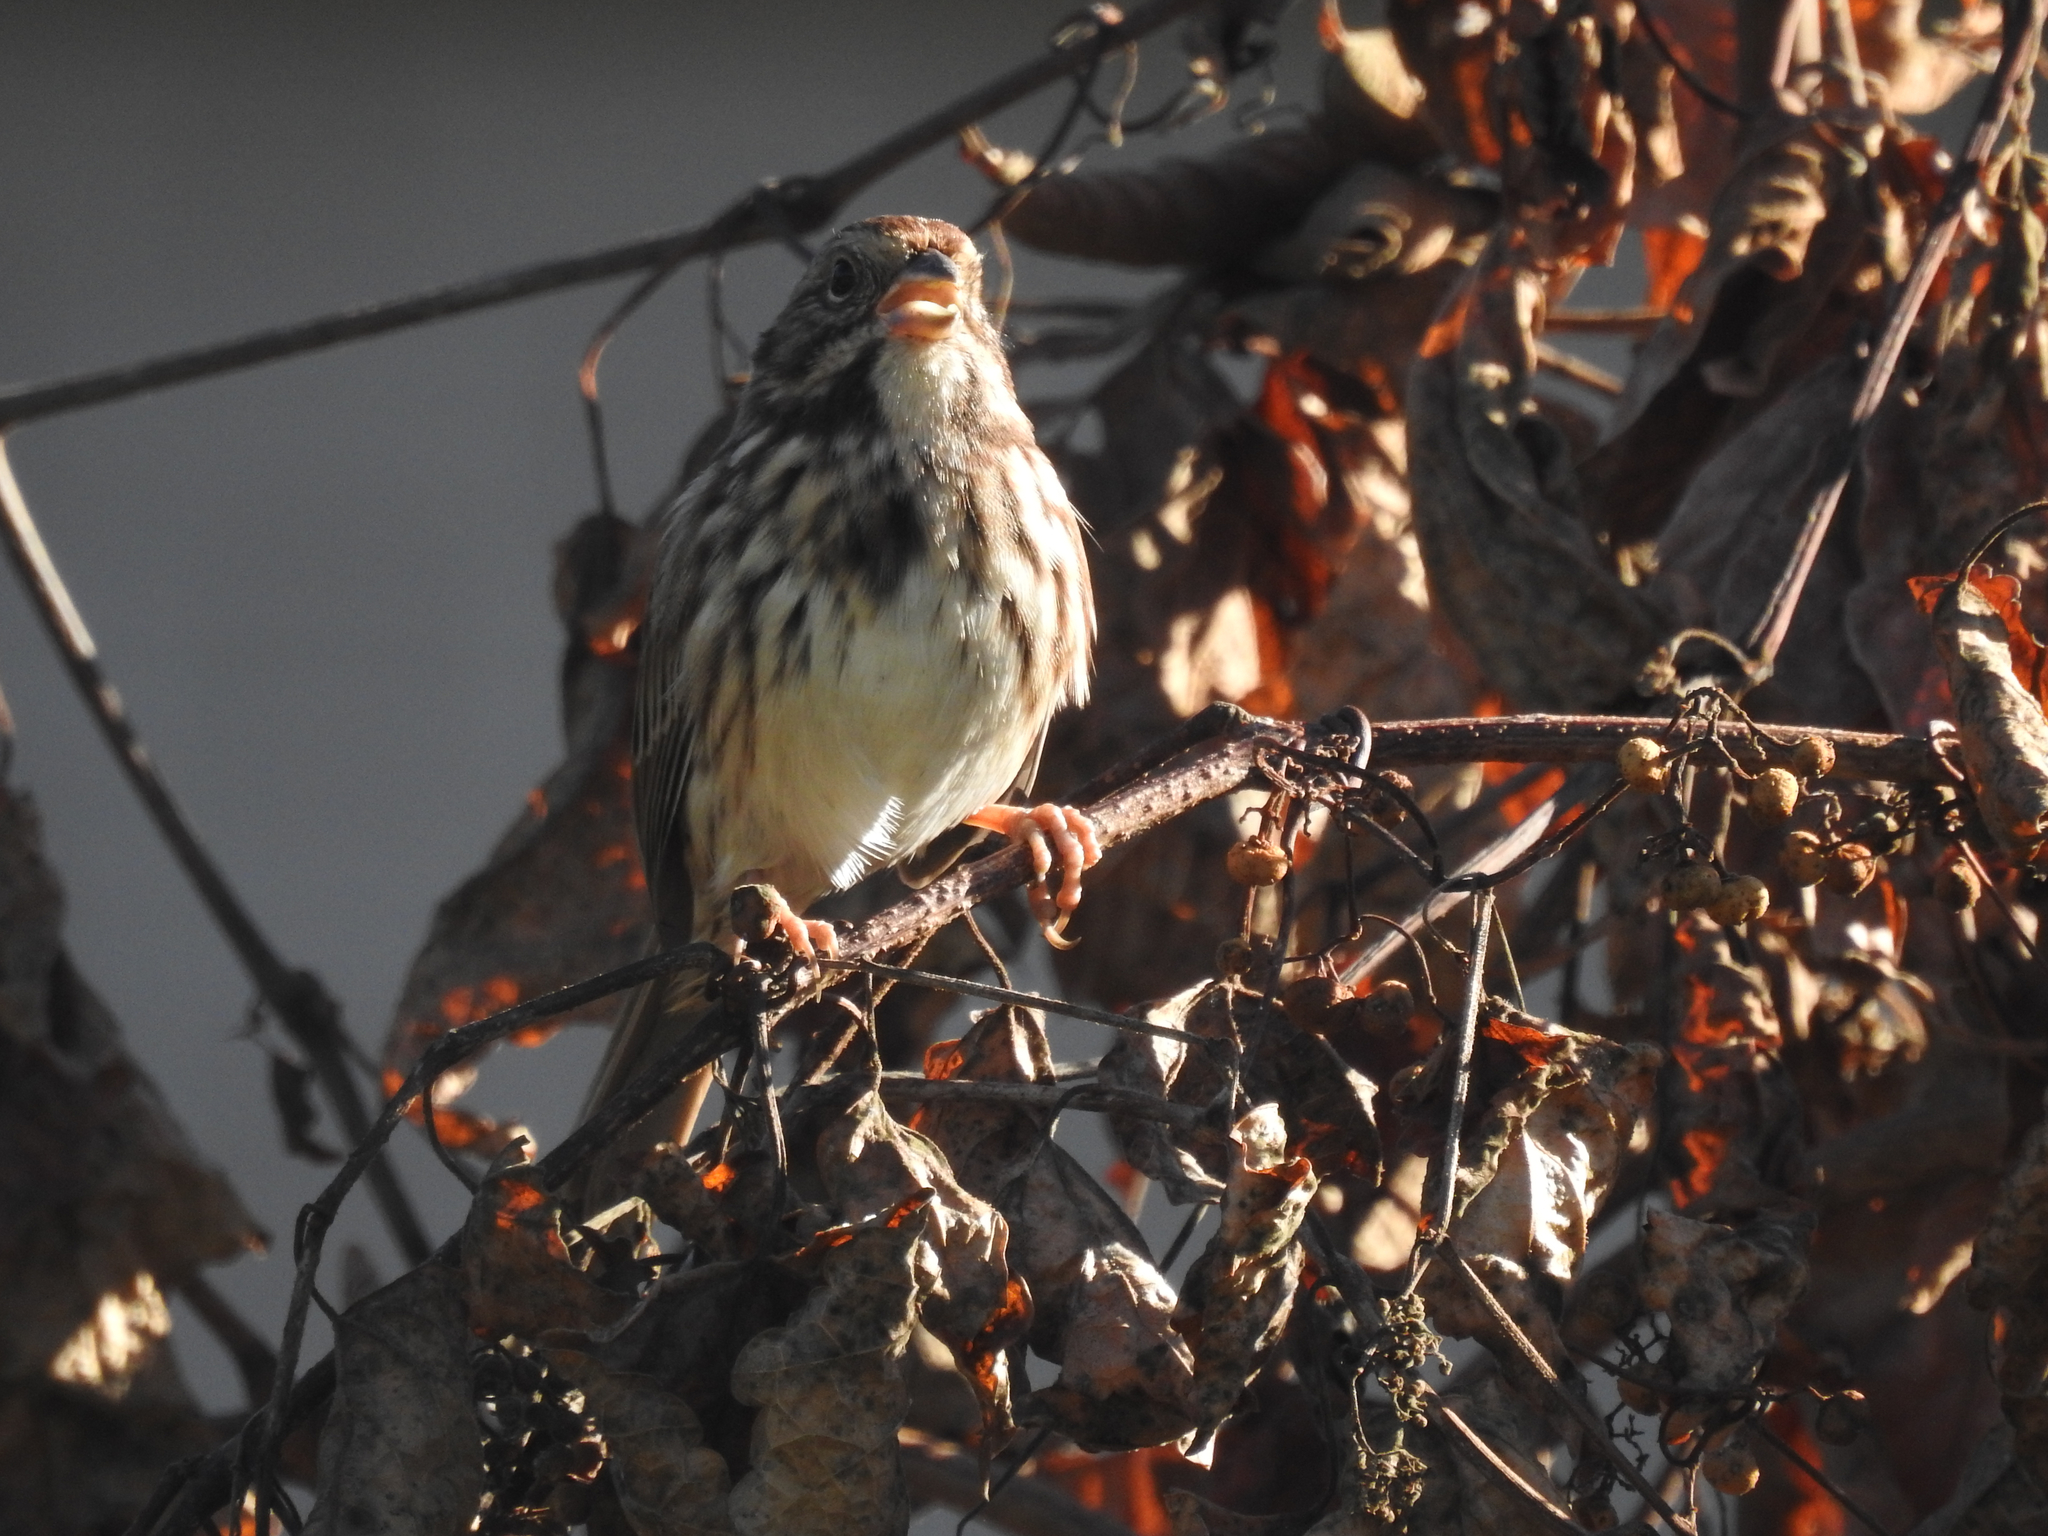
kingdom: Animalia
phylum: Chordata
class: Aves
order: Passeriformes
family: Passerellidae
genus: Melospiza
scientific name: Melospiza melodia
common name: Song sparrow
